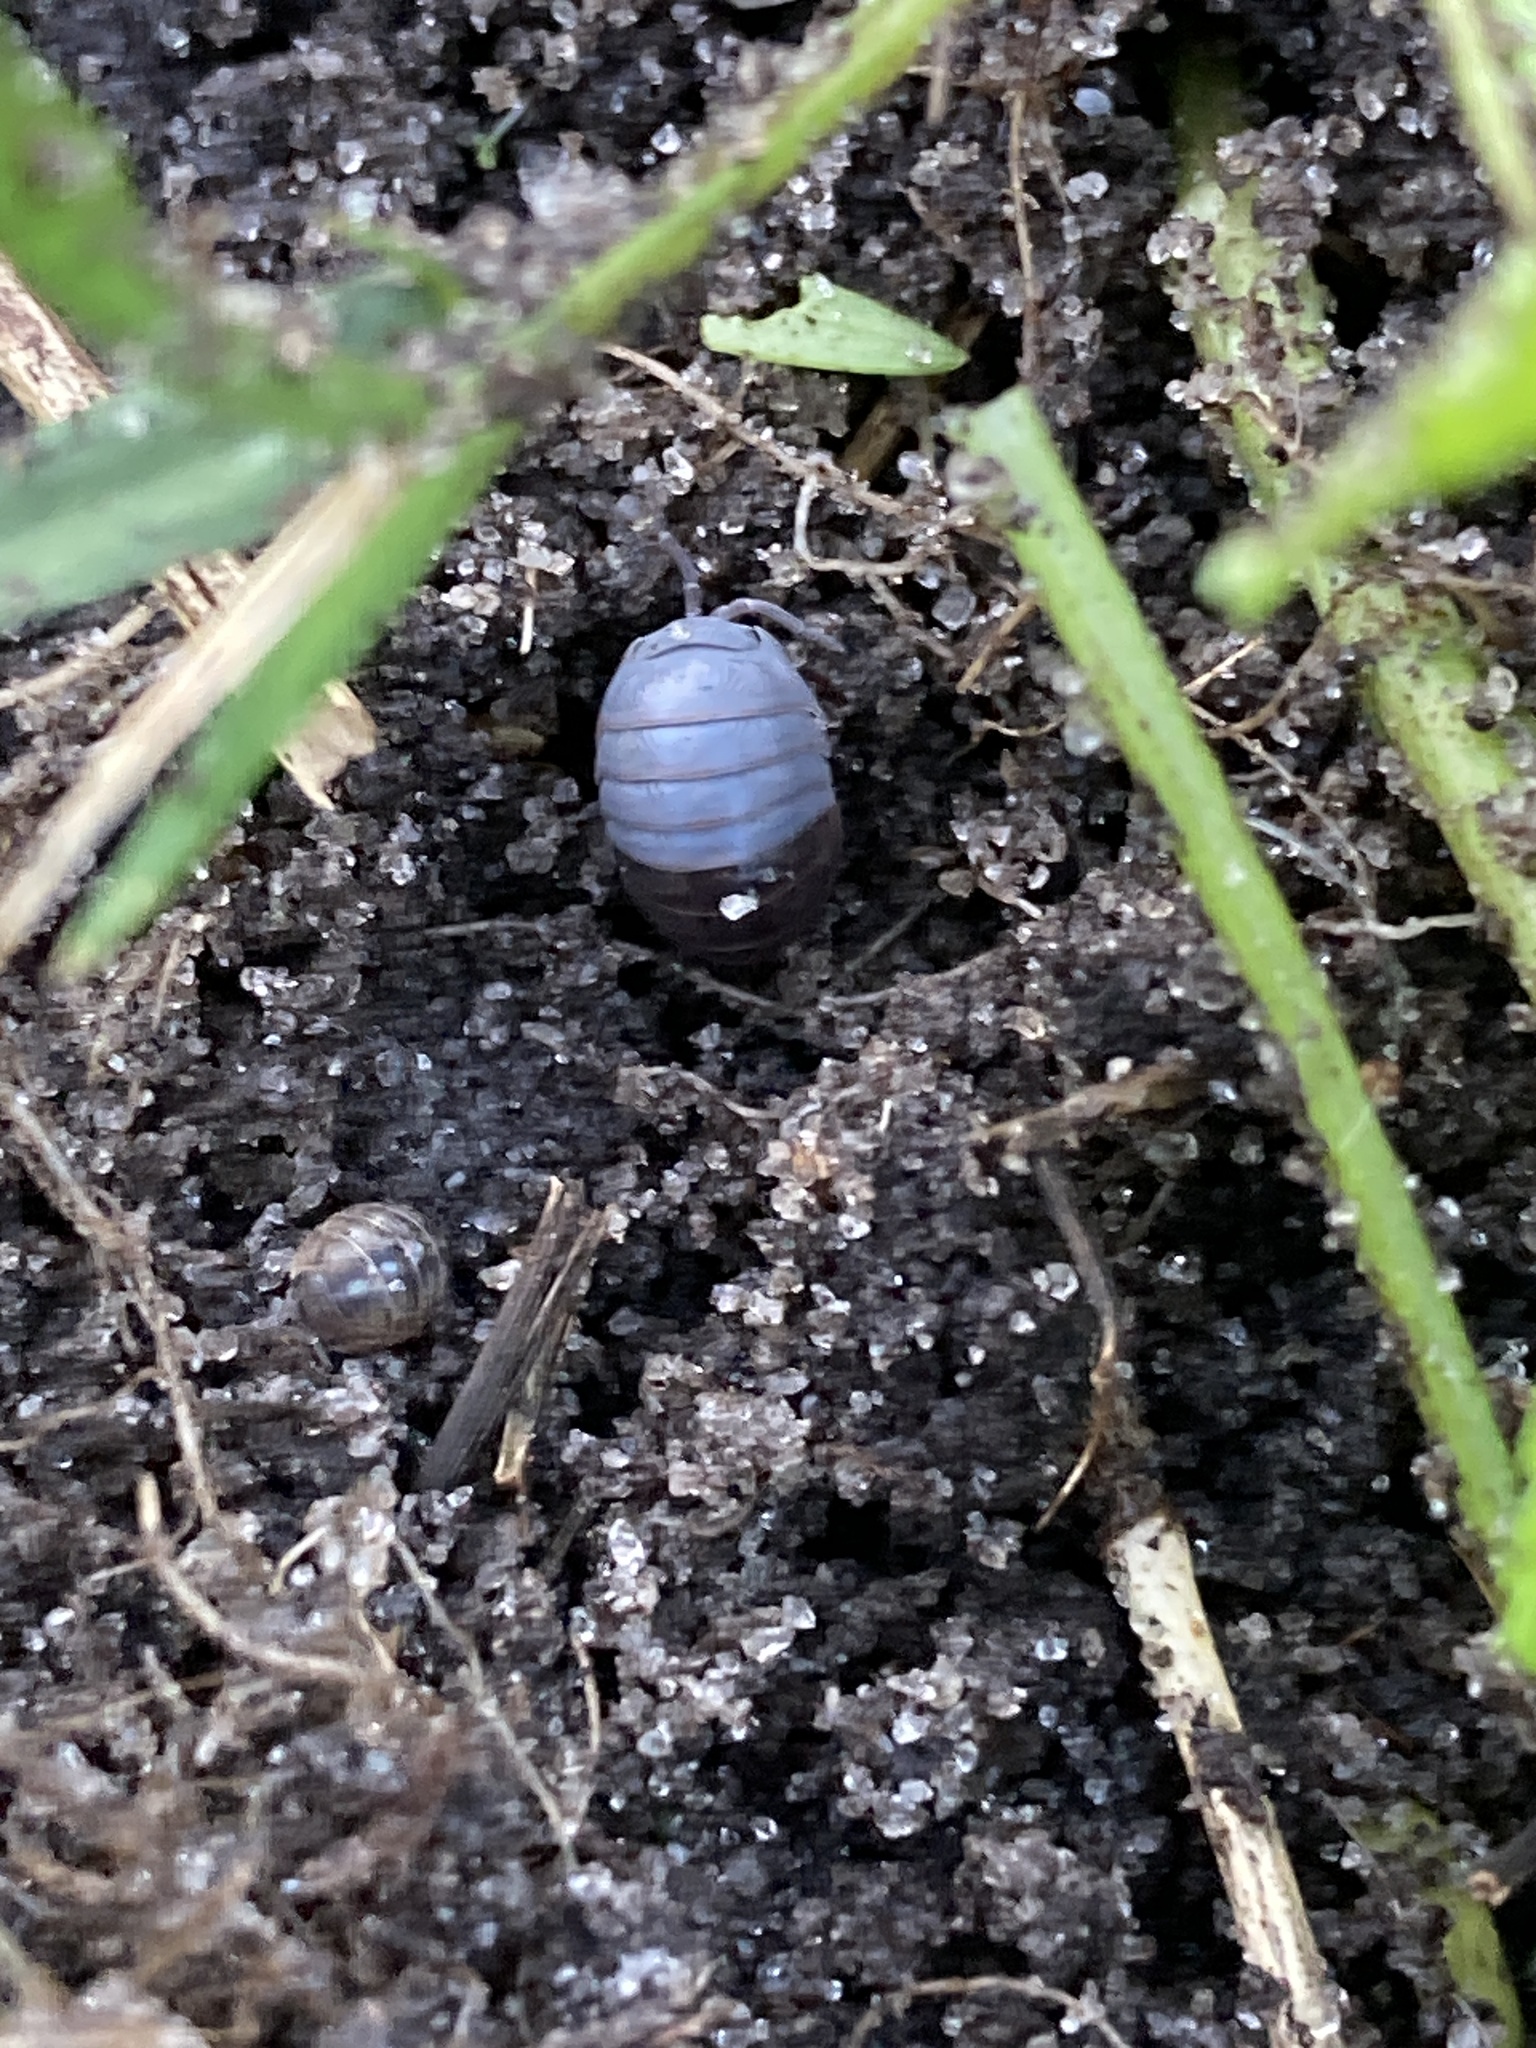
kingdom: Animalia
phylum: Arthropoda
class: Malacostraca
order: Isopoda
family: Armadillidiidae
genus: Armadillidium
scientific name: Armadillidium vulgare
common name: Common pill woodlouse
